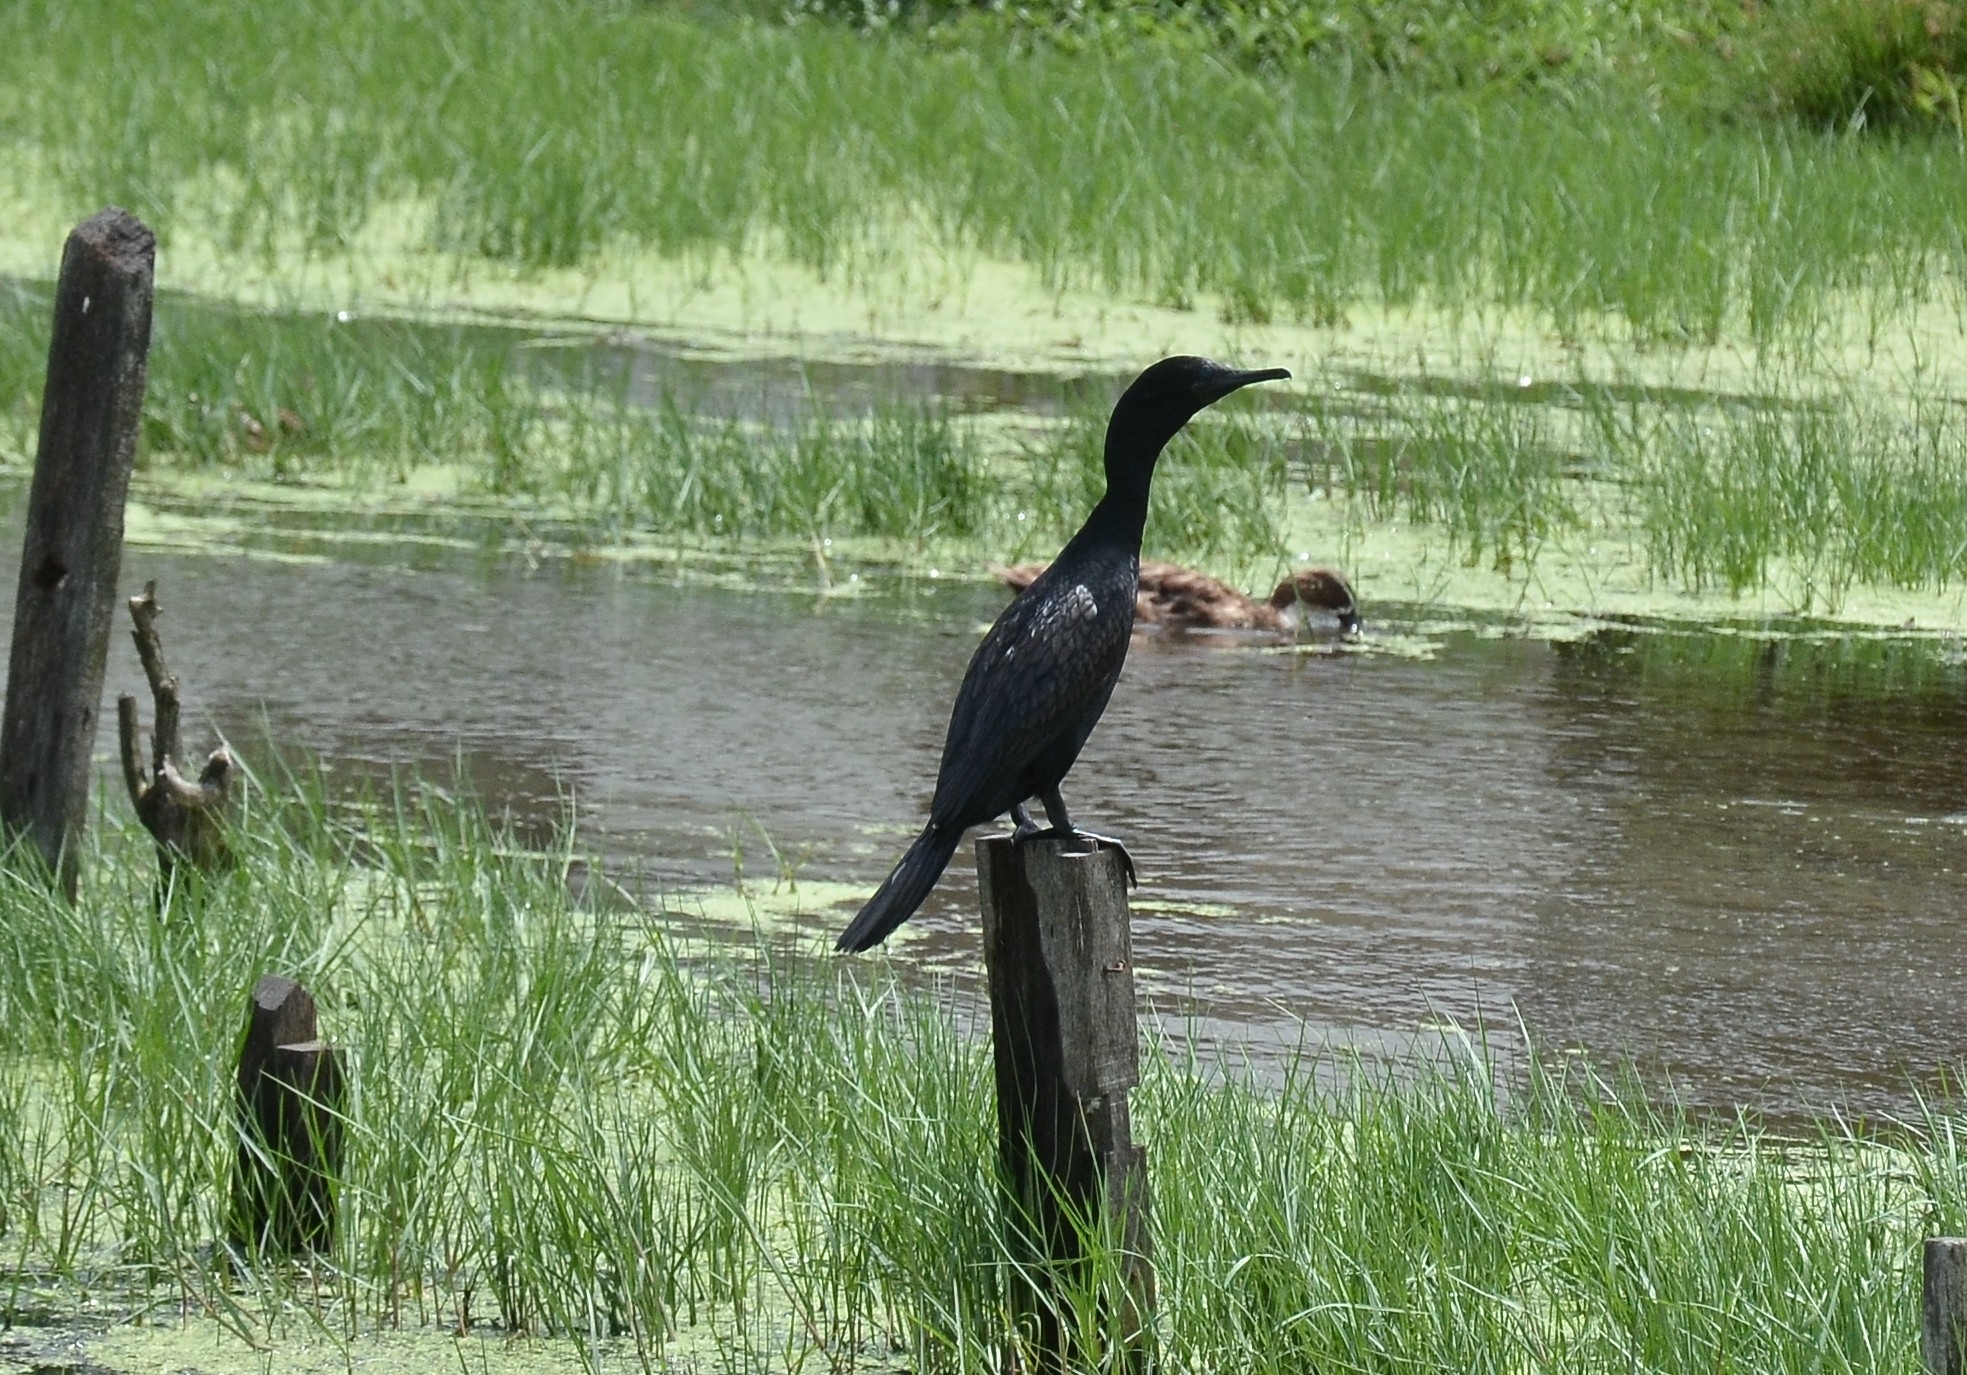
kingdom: Animalia
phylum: Chordata
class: Aves
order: Suliformes
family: Phalacrocoracidae
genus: Microcarbo
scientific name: Microcarbo niger
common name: Little cormorant
